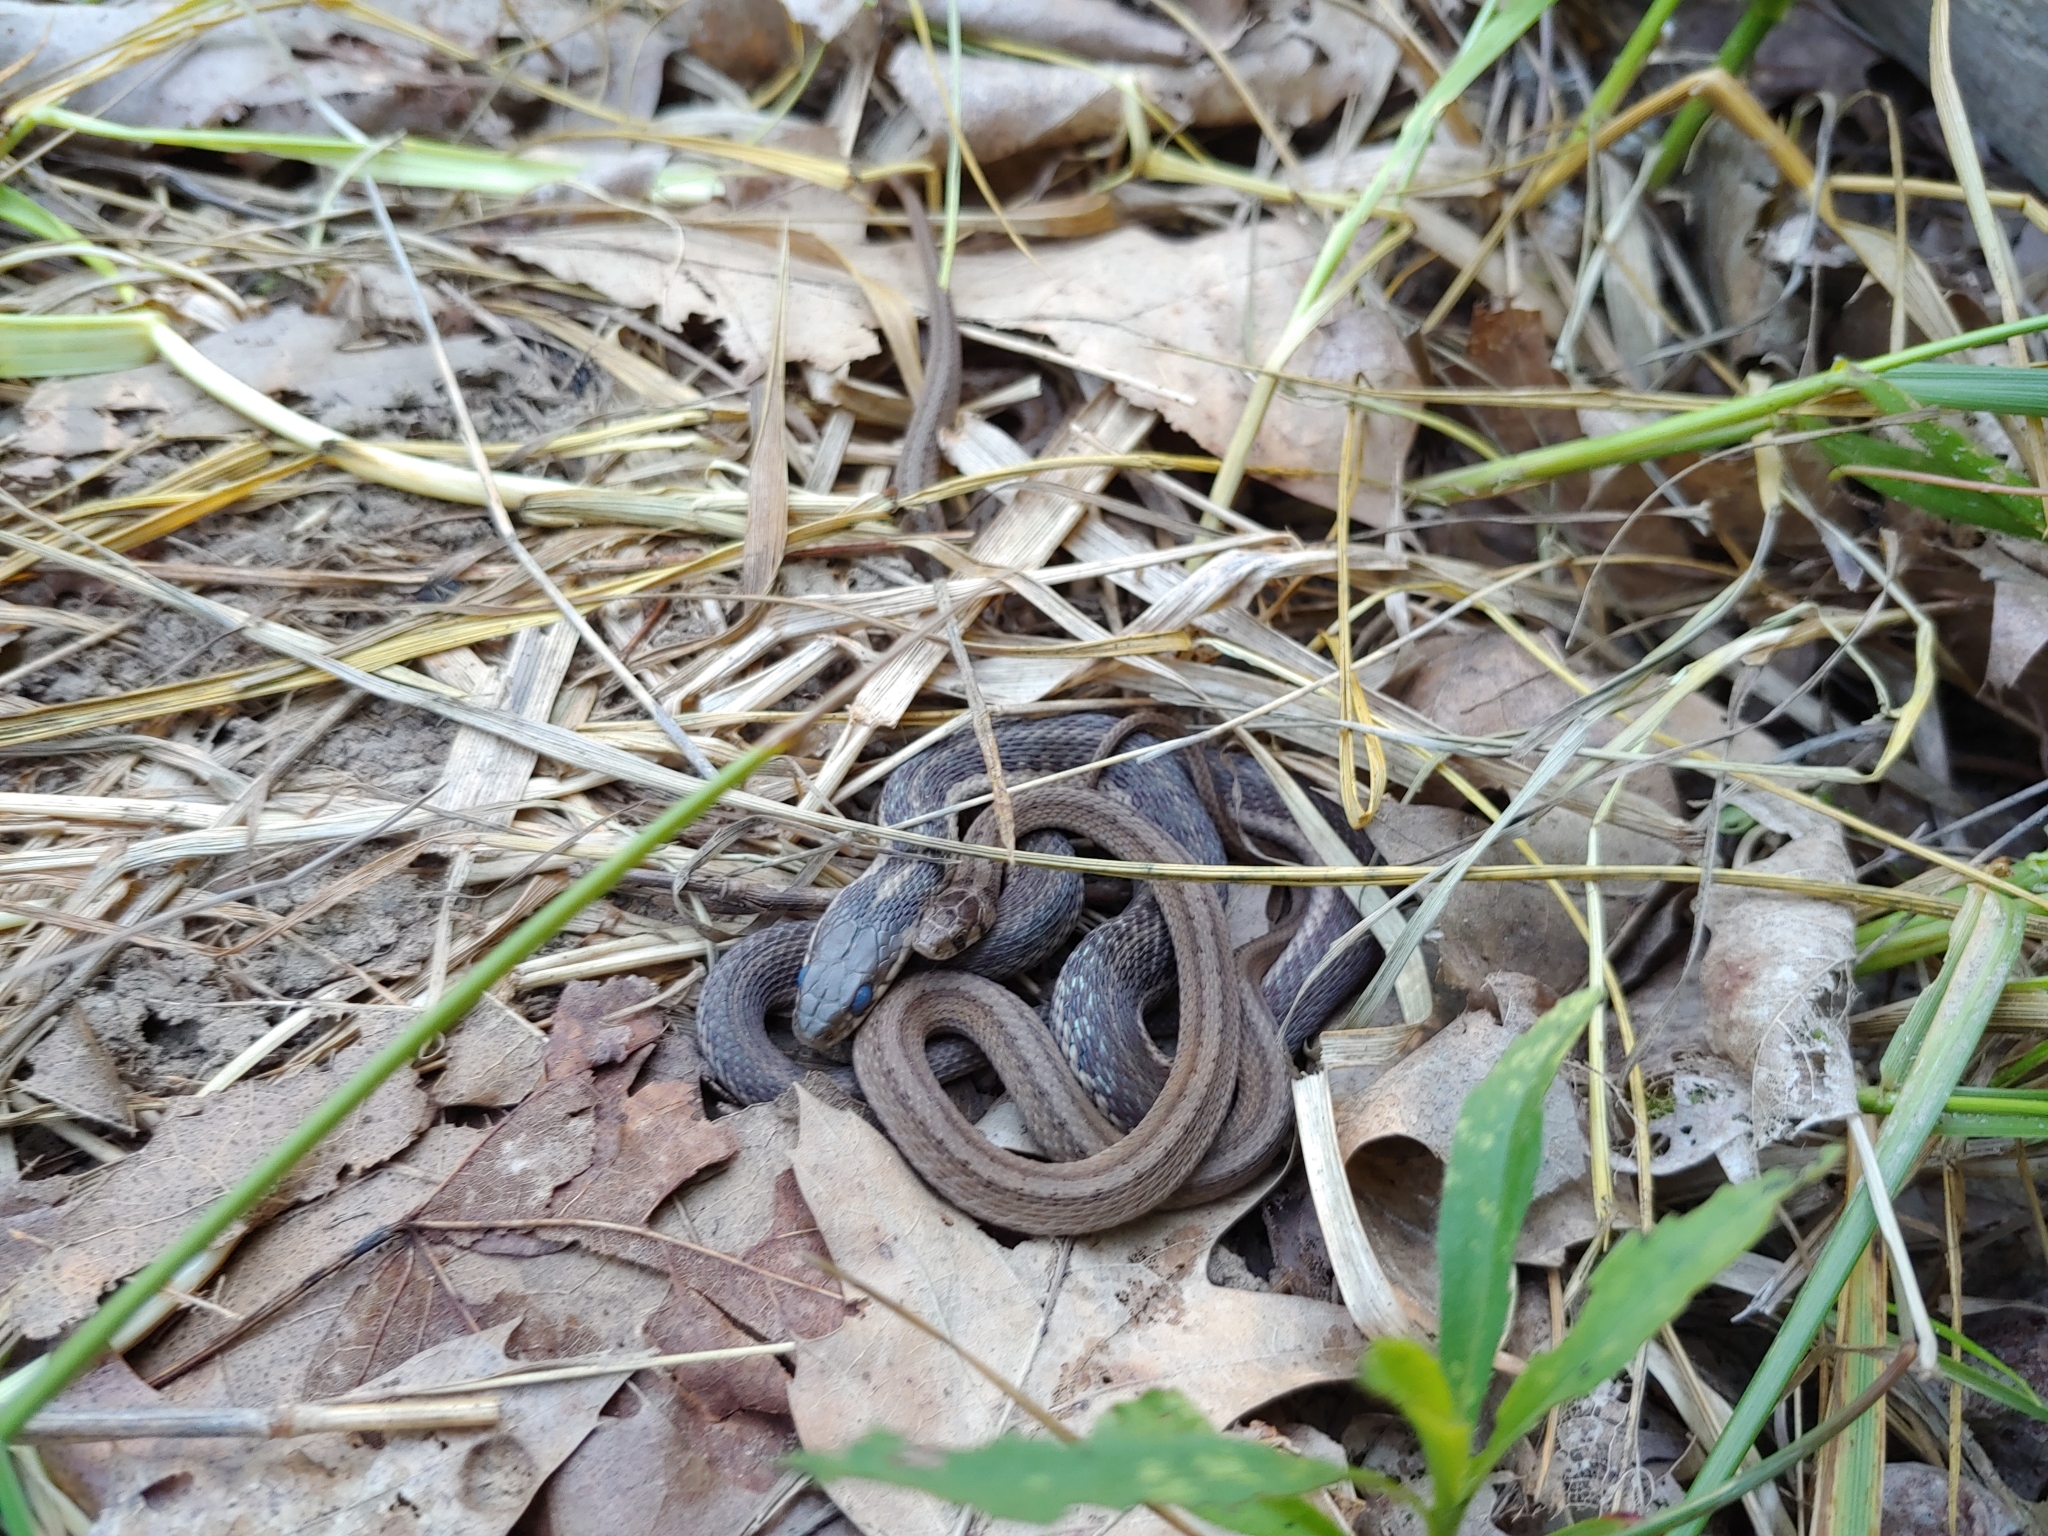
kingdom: Animalia
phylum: Chordata
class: Squamata
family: Colubridae
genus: Thamnophis
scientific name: Thamnophis sirtalis
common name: Common garter snake
